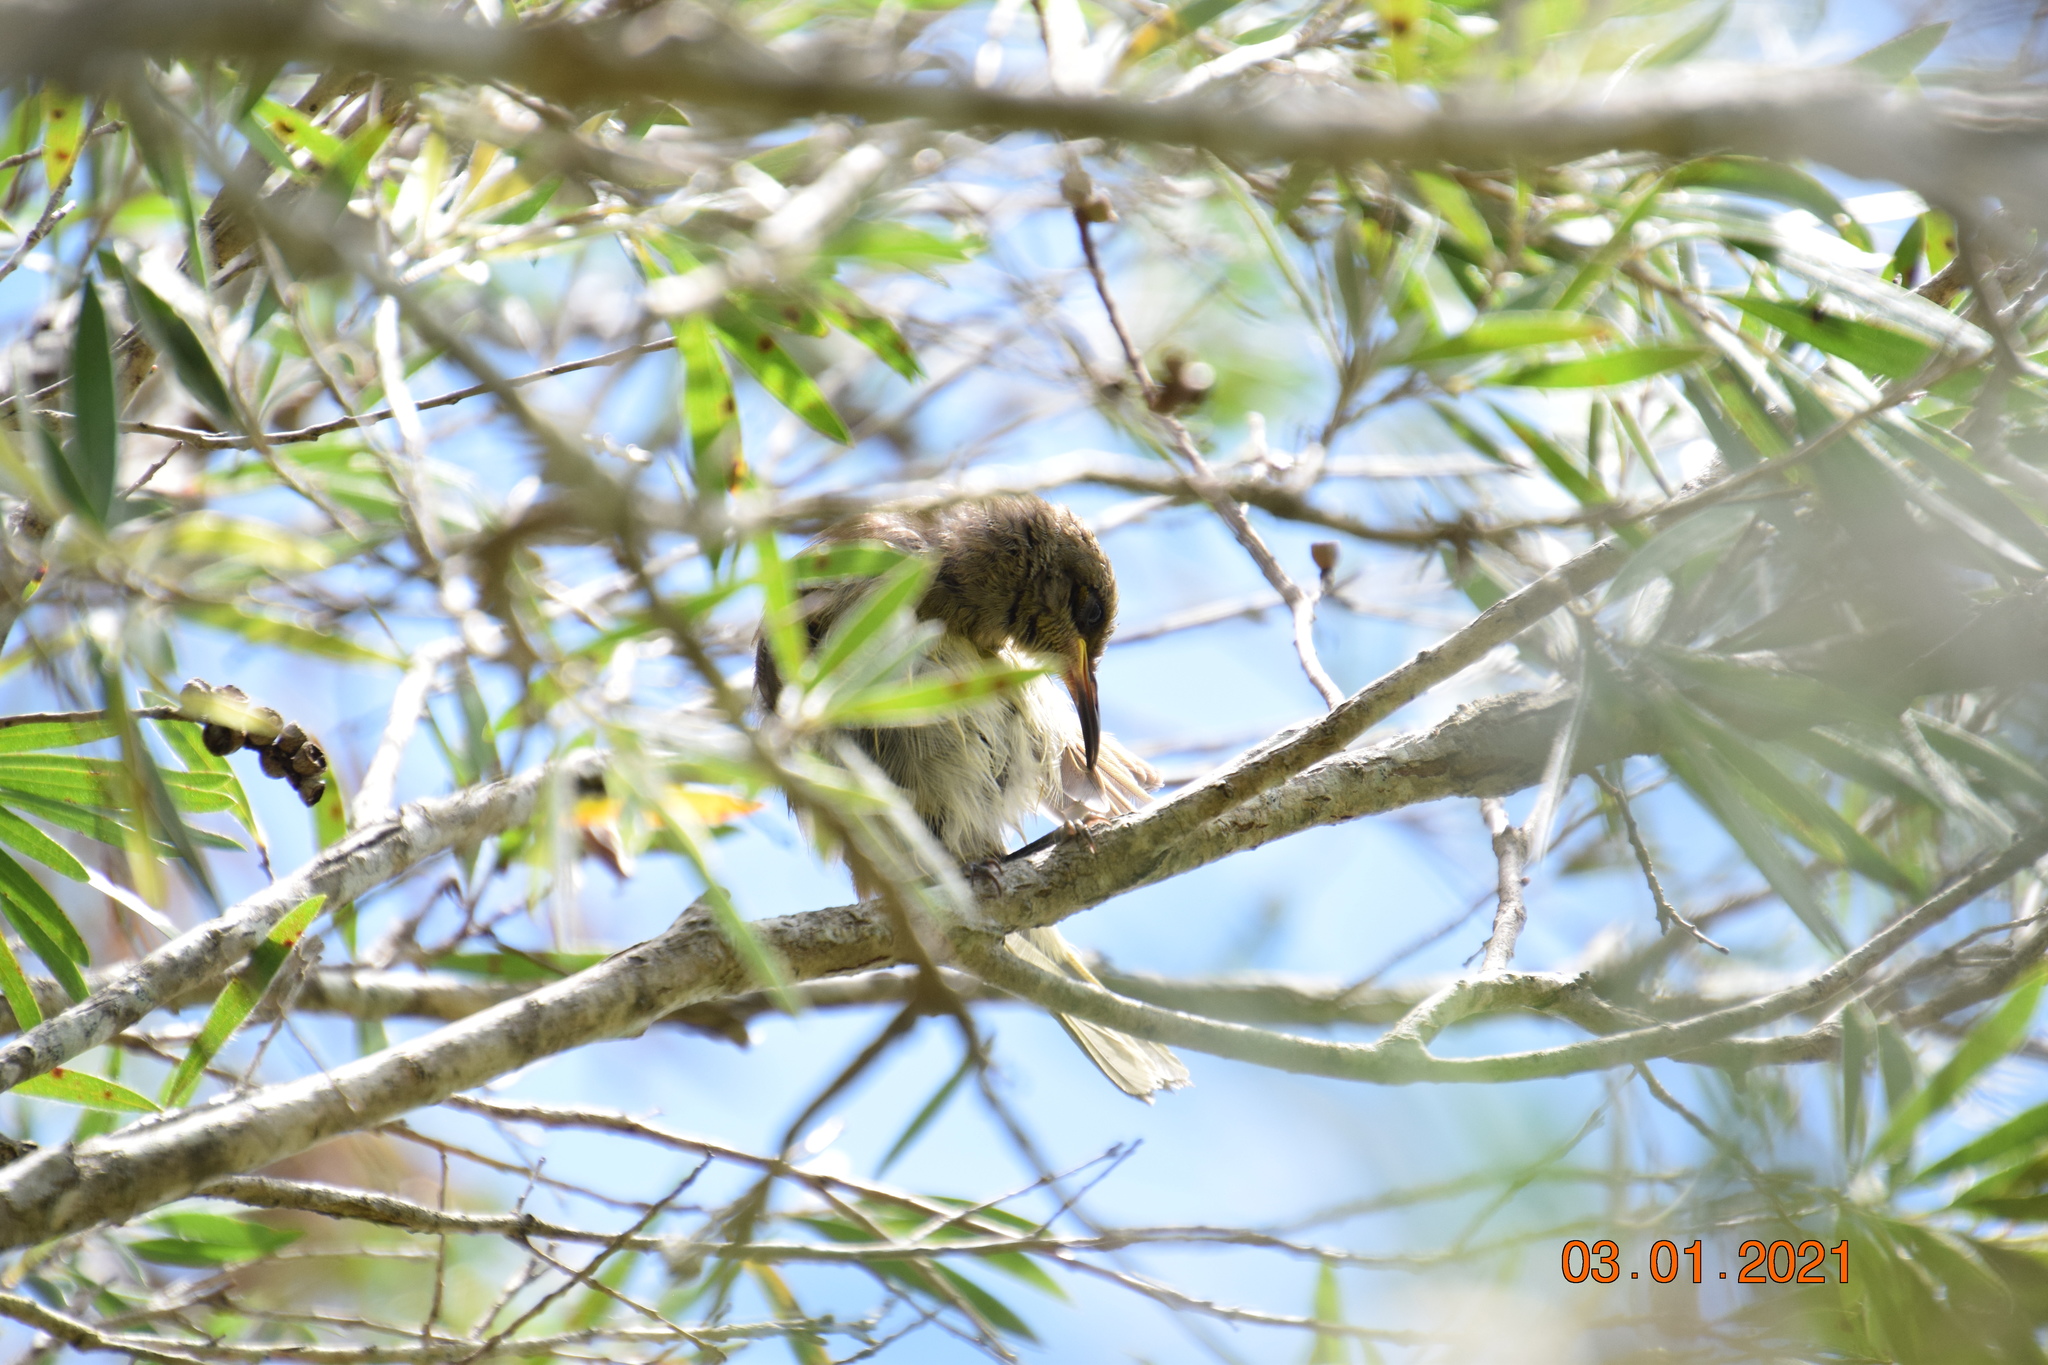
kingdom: Animalia
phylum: Chordata
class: Aves
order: Passeriformes
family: Meliphagidae
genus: Lichmera
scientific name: Lichmera indistincta
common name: Brown honeyeater
